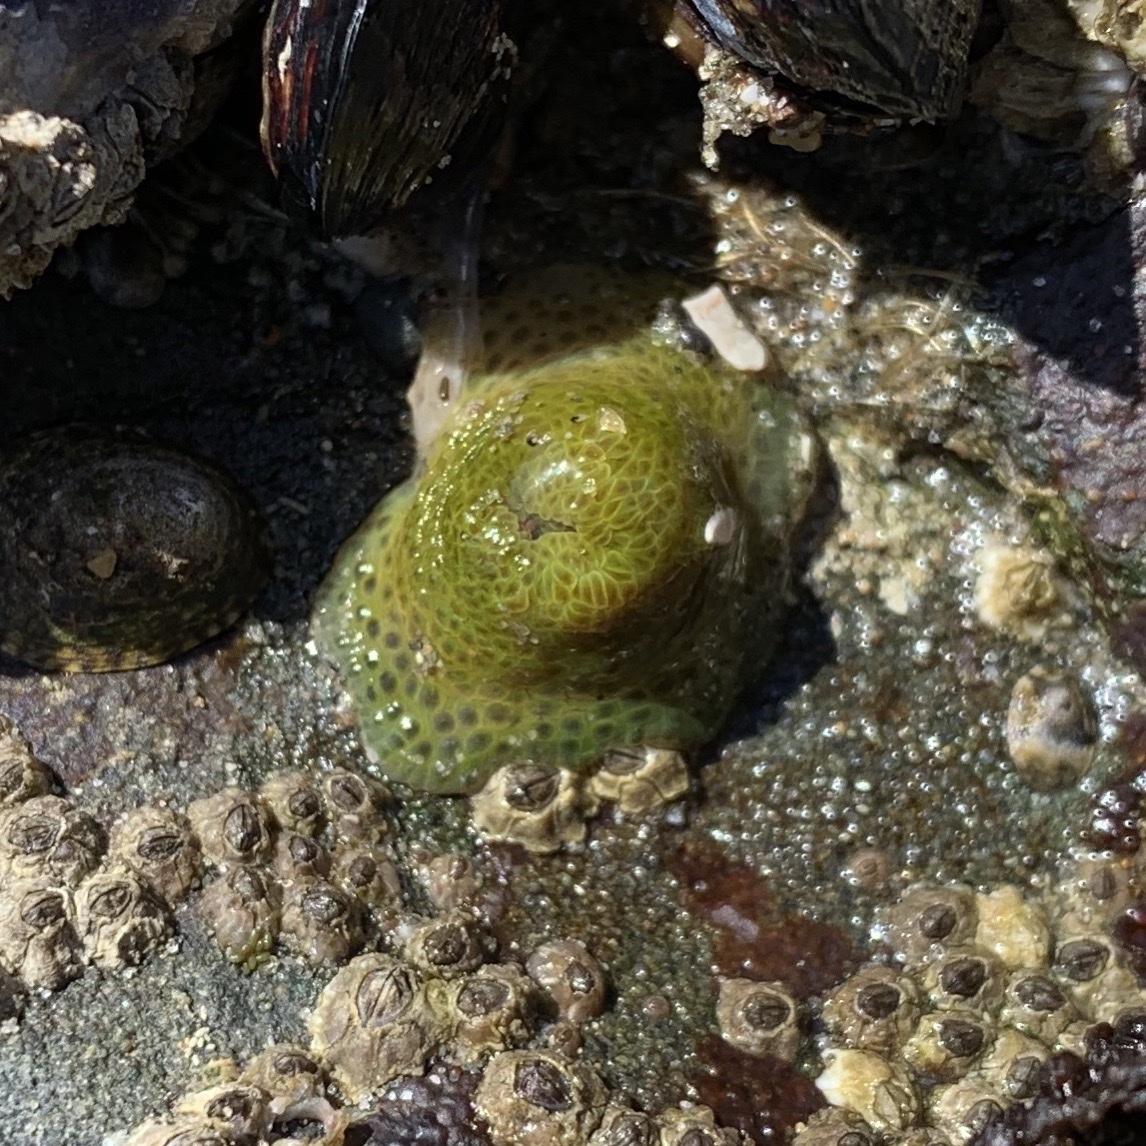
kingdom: Animalia
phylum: Cnidaria
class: Anthozoa
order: Actiniaria
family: Actiniidae
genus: Anthopleura
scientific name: Anthopleura elegantissima
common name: Clonal anemone
